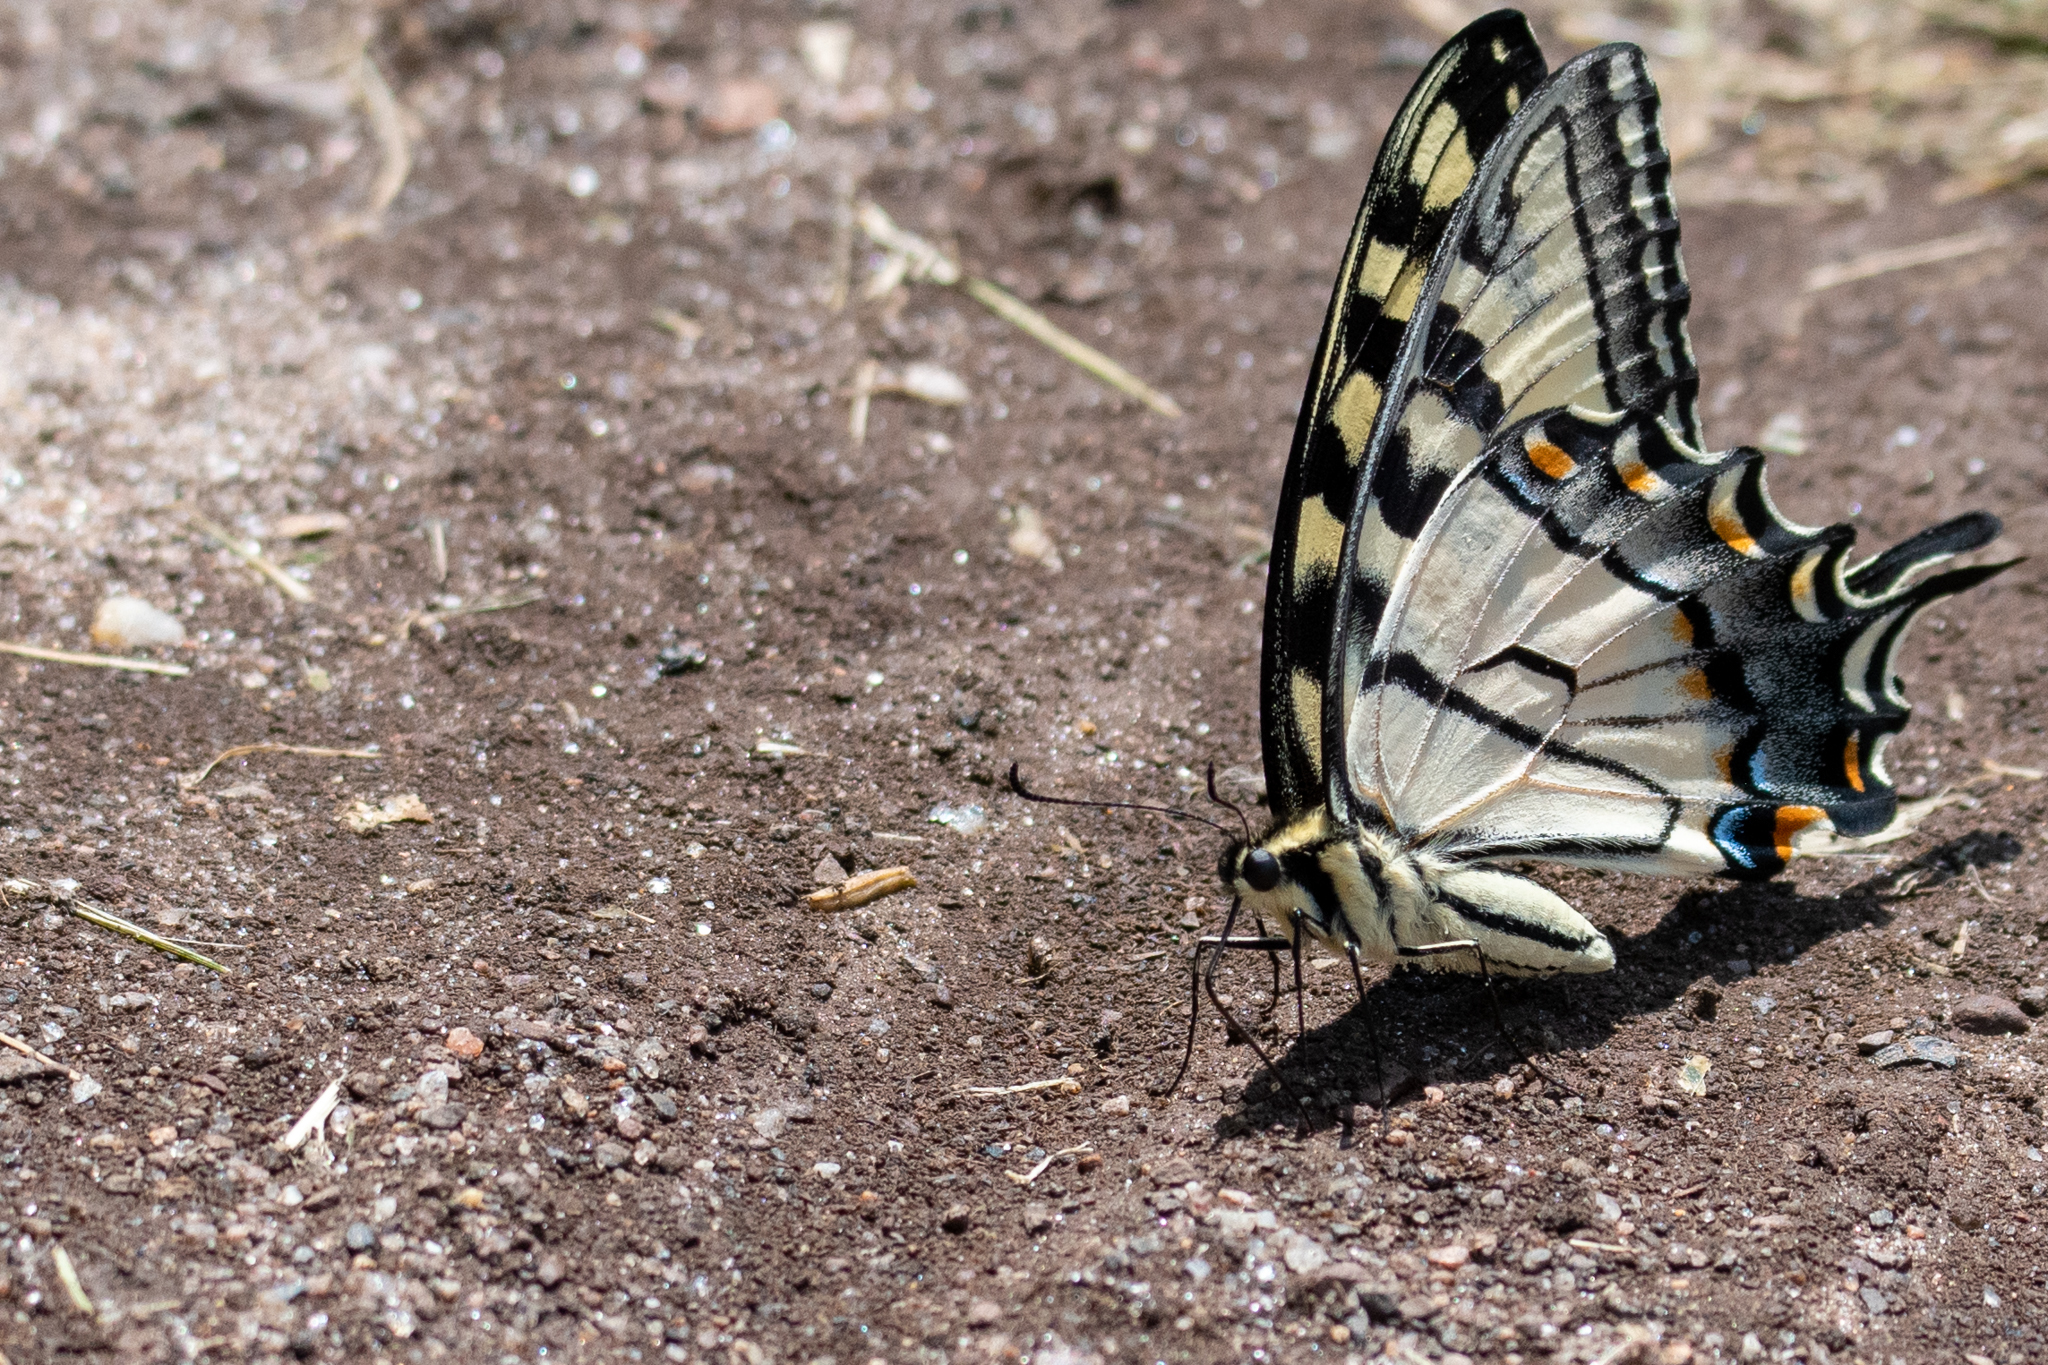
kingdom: Animalia
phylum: Arthropoda
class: Insecta
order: Lepidoptera
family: Papilionidae
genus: Papilio
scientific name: Papilio glaucus
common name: Tiger swallowtail
